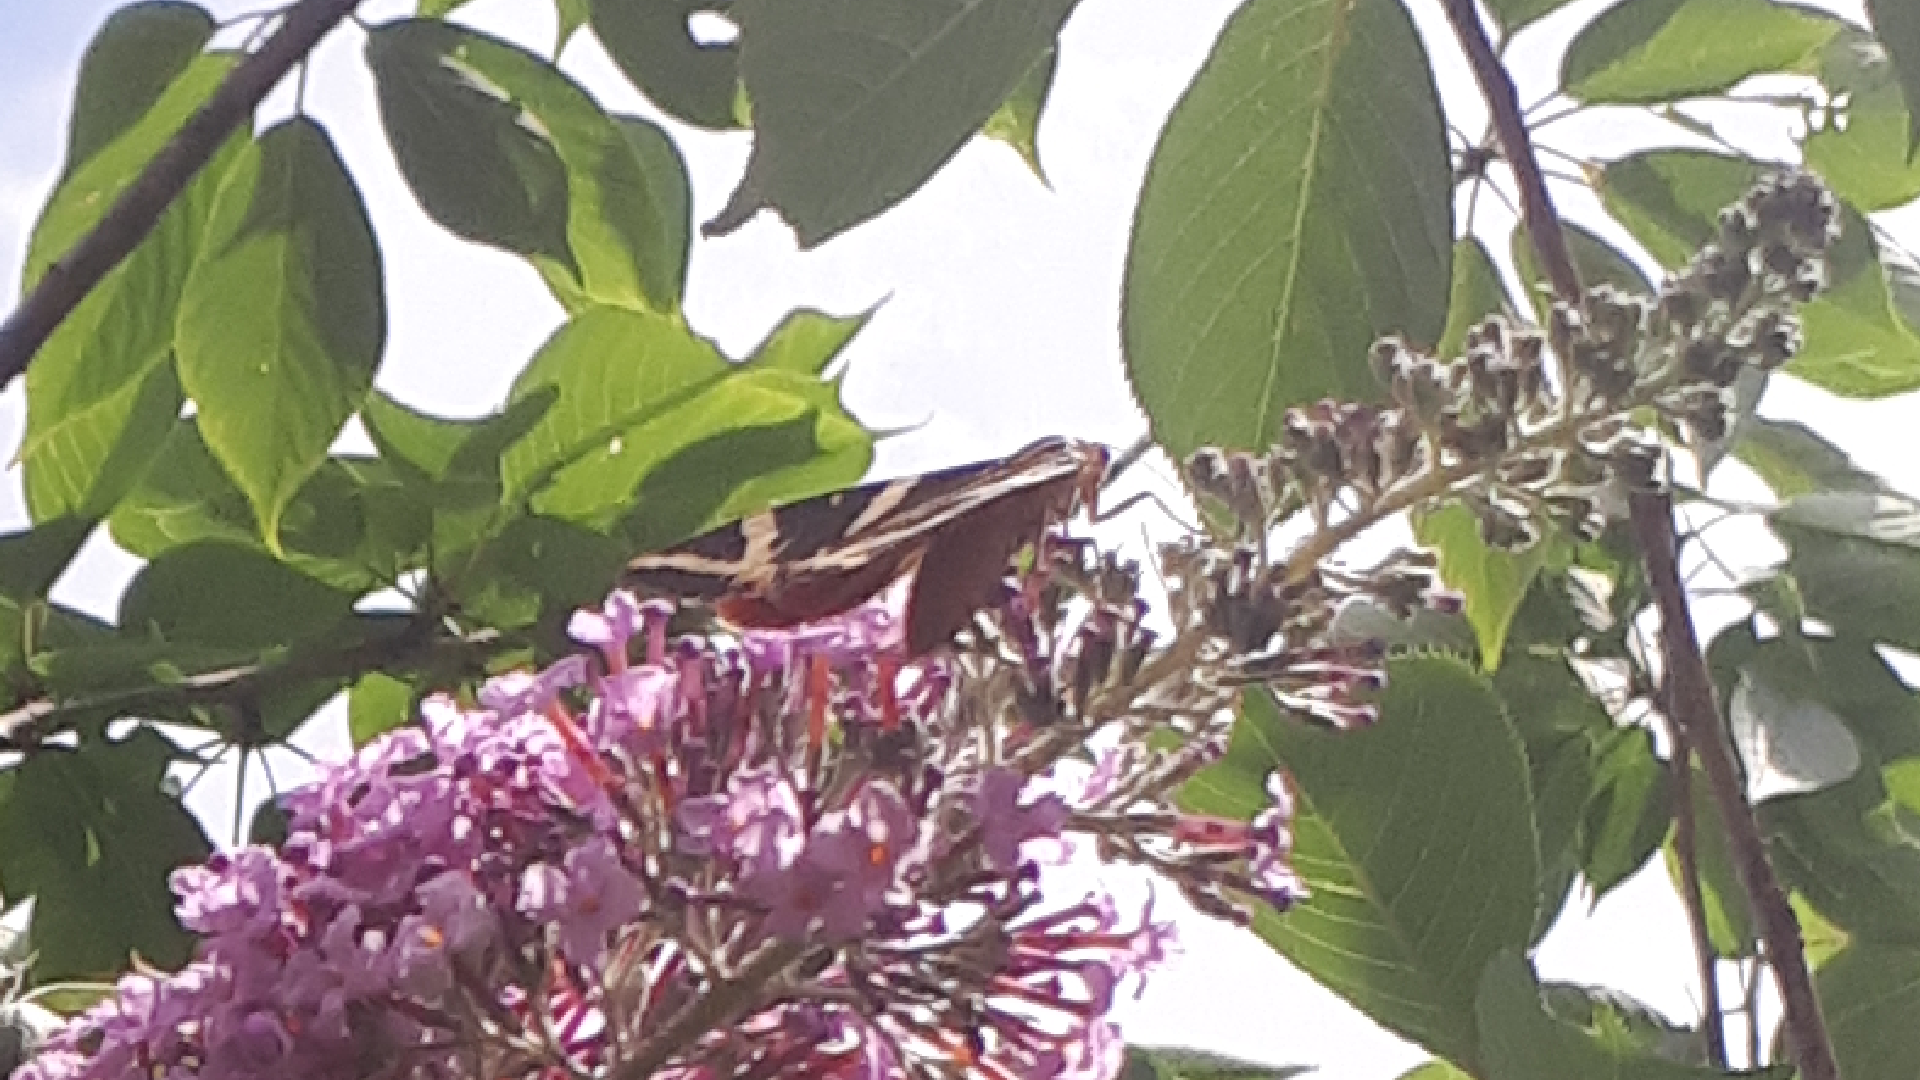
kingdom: Animalia
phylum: Arthropoda
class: Insecta
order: Lepidoptera
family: Erebidae
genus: Euplagia
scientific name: Euplagia quadripunctaria
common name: Jersey tiger
